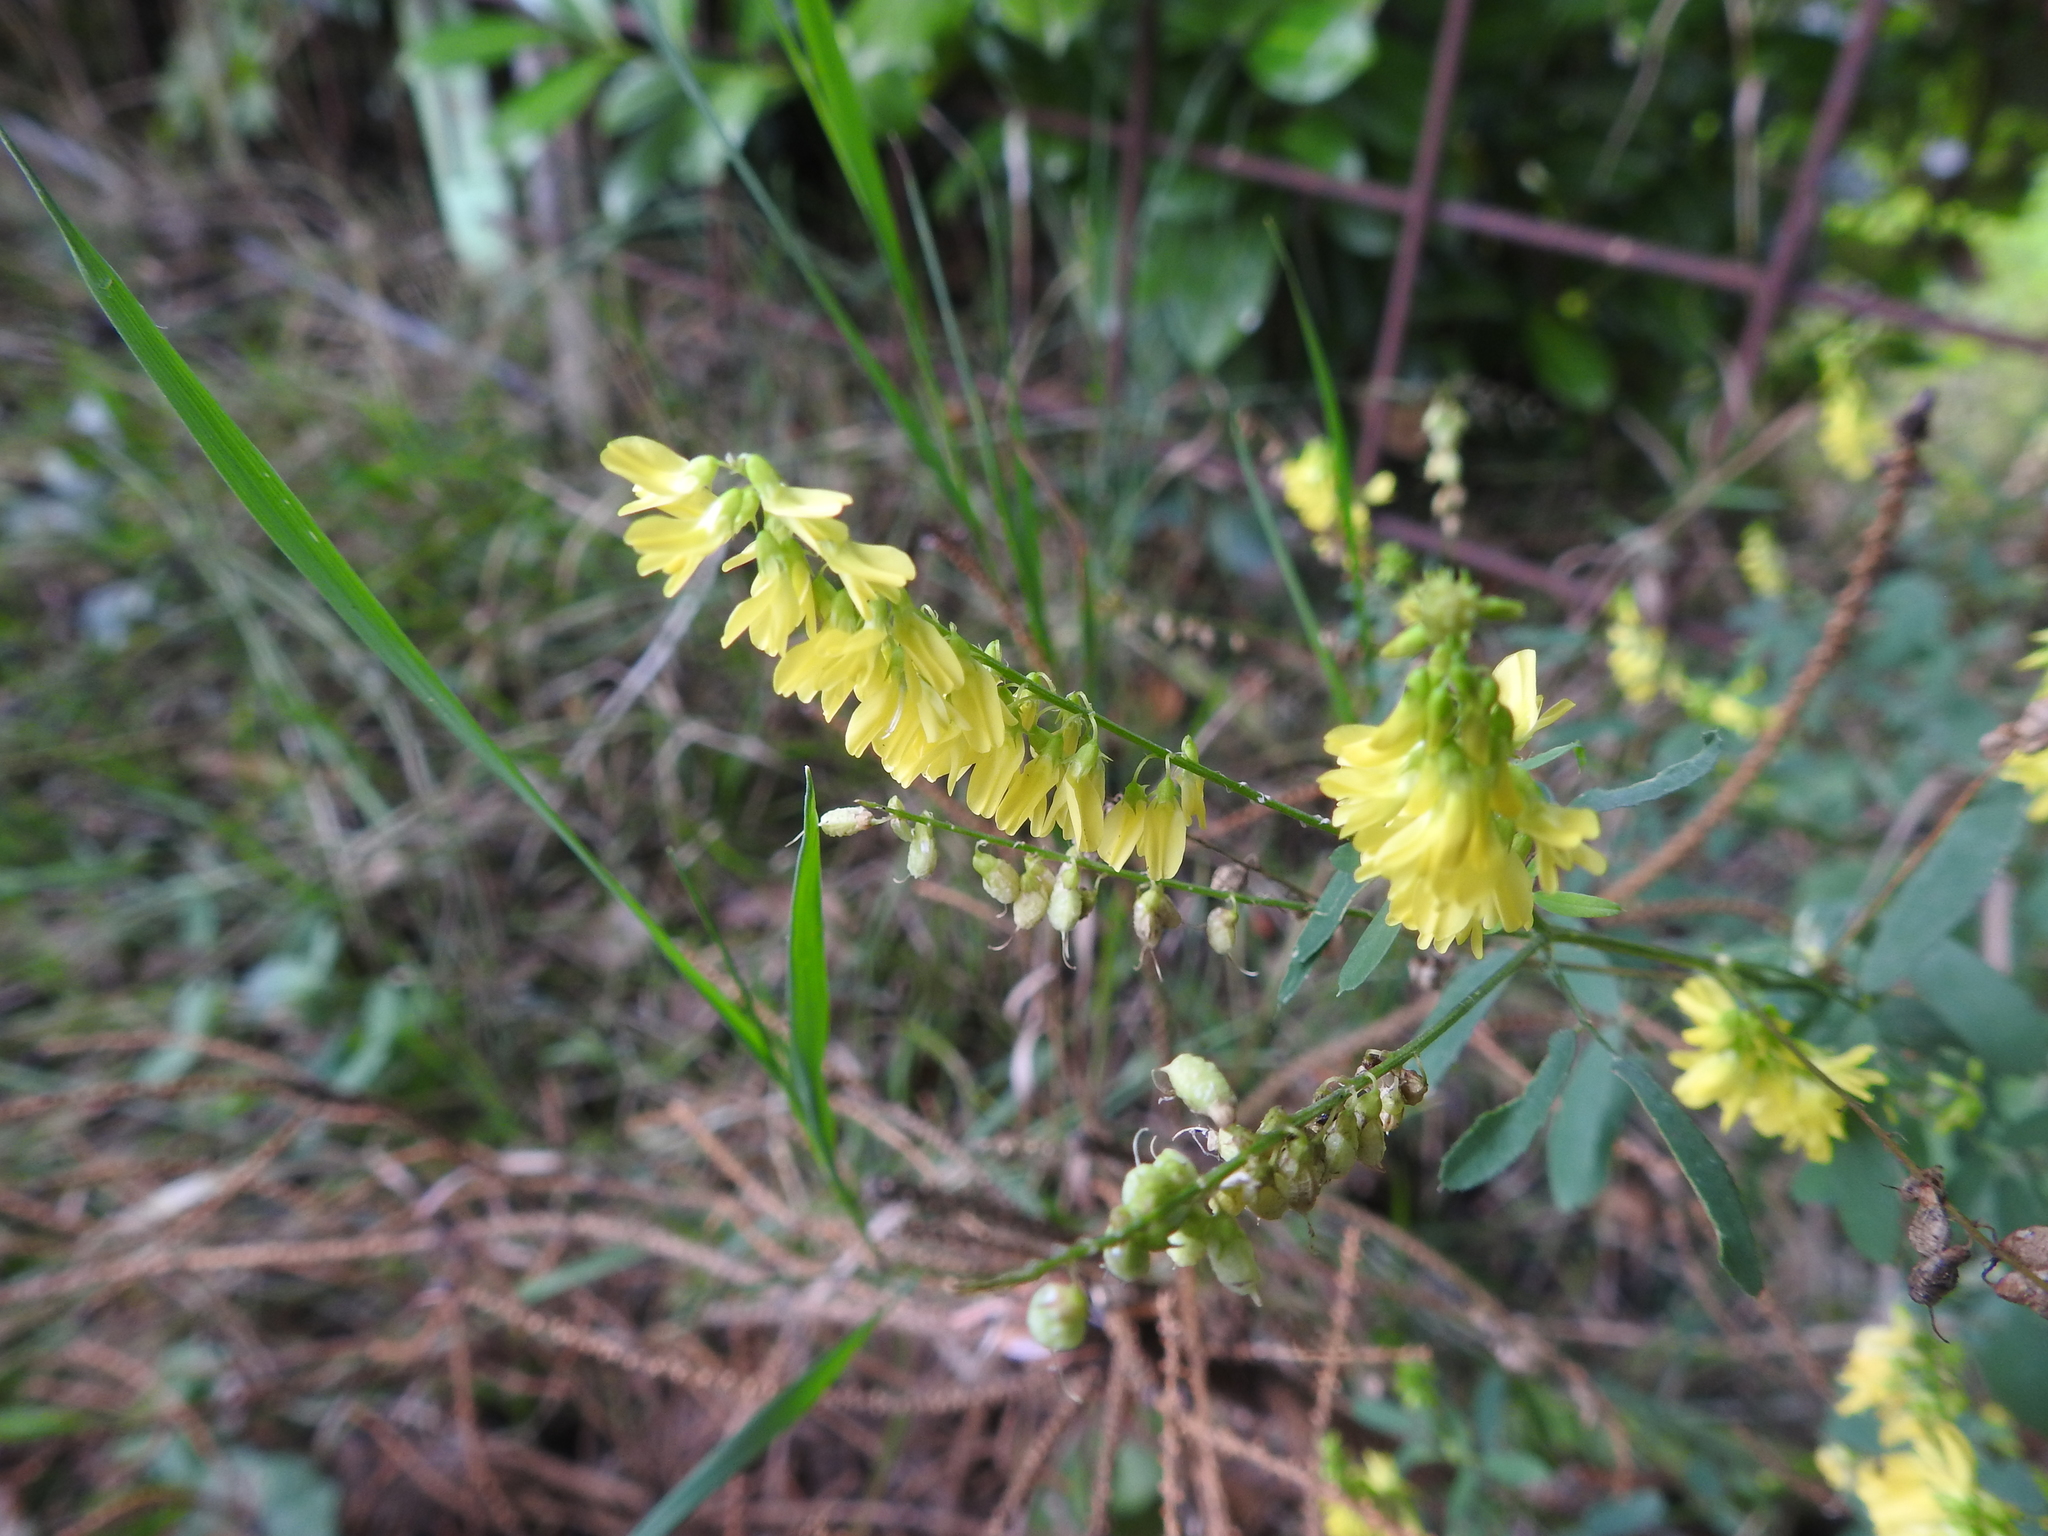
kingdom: Plantae
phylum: Tracheophyta
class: Magnoliopsida
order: Fabales
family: Fabaceae
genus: Melilotus
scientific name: Melilotus officinalis
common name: Sweetclover
